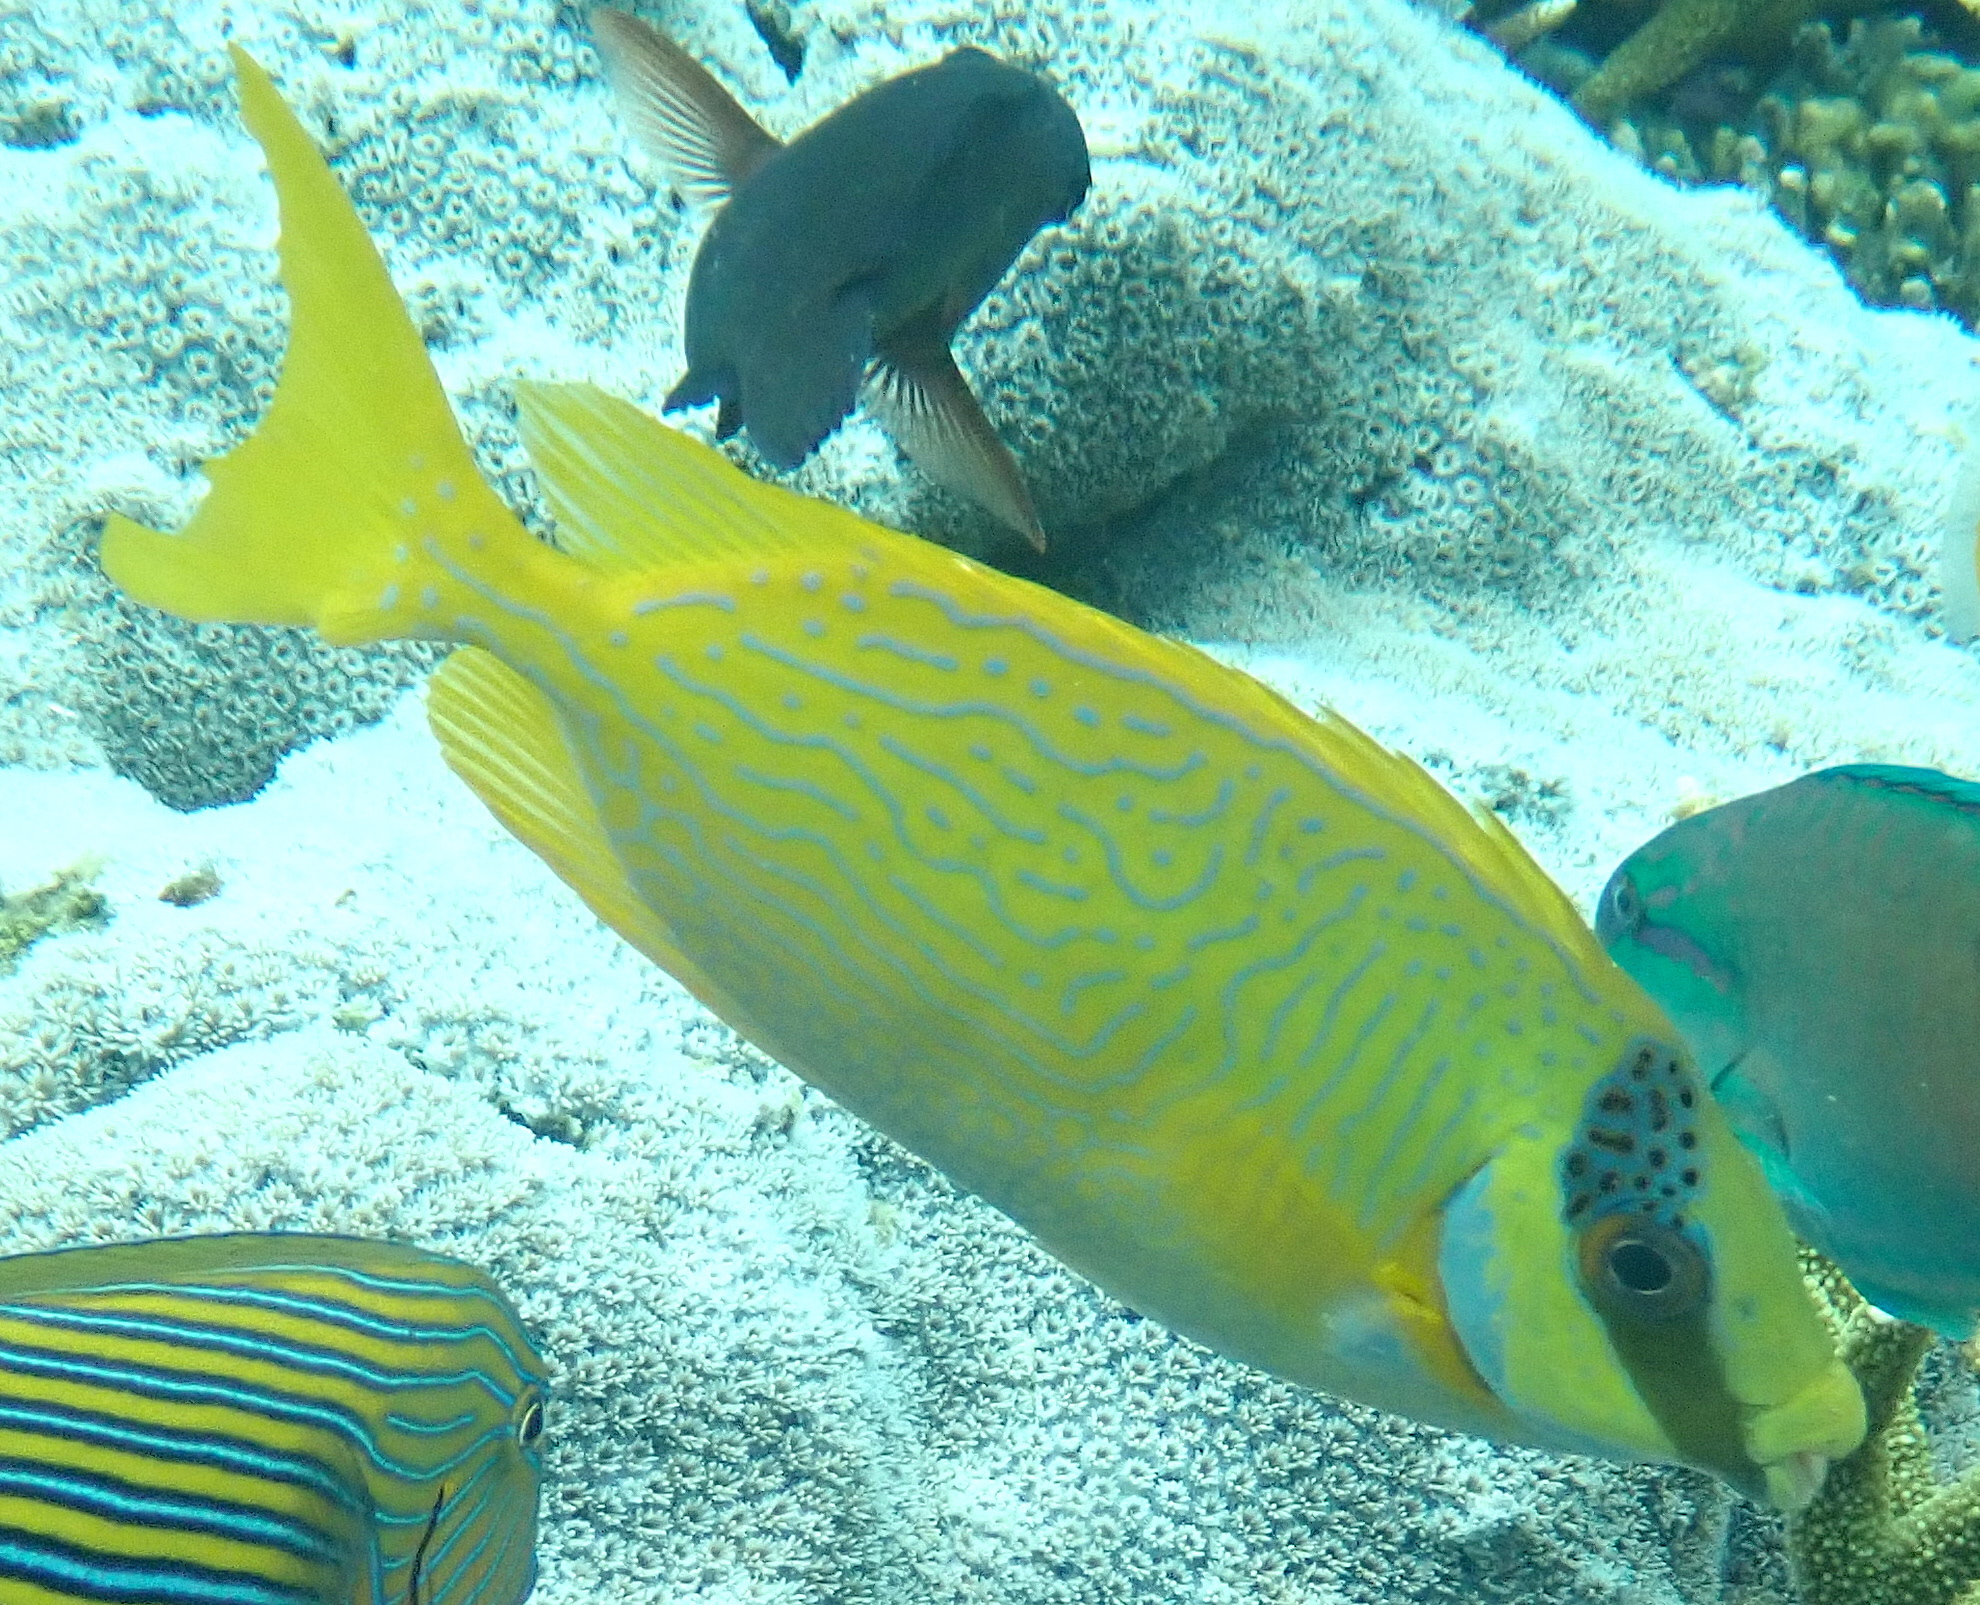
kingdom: Animalia
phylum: Chordata
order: Perciformes
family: Siganidae
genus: Siganus
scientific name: Siganus puellus
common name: Masked rabbitfish
